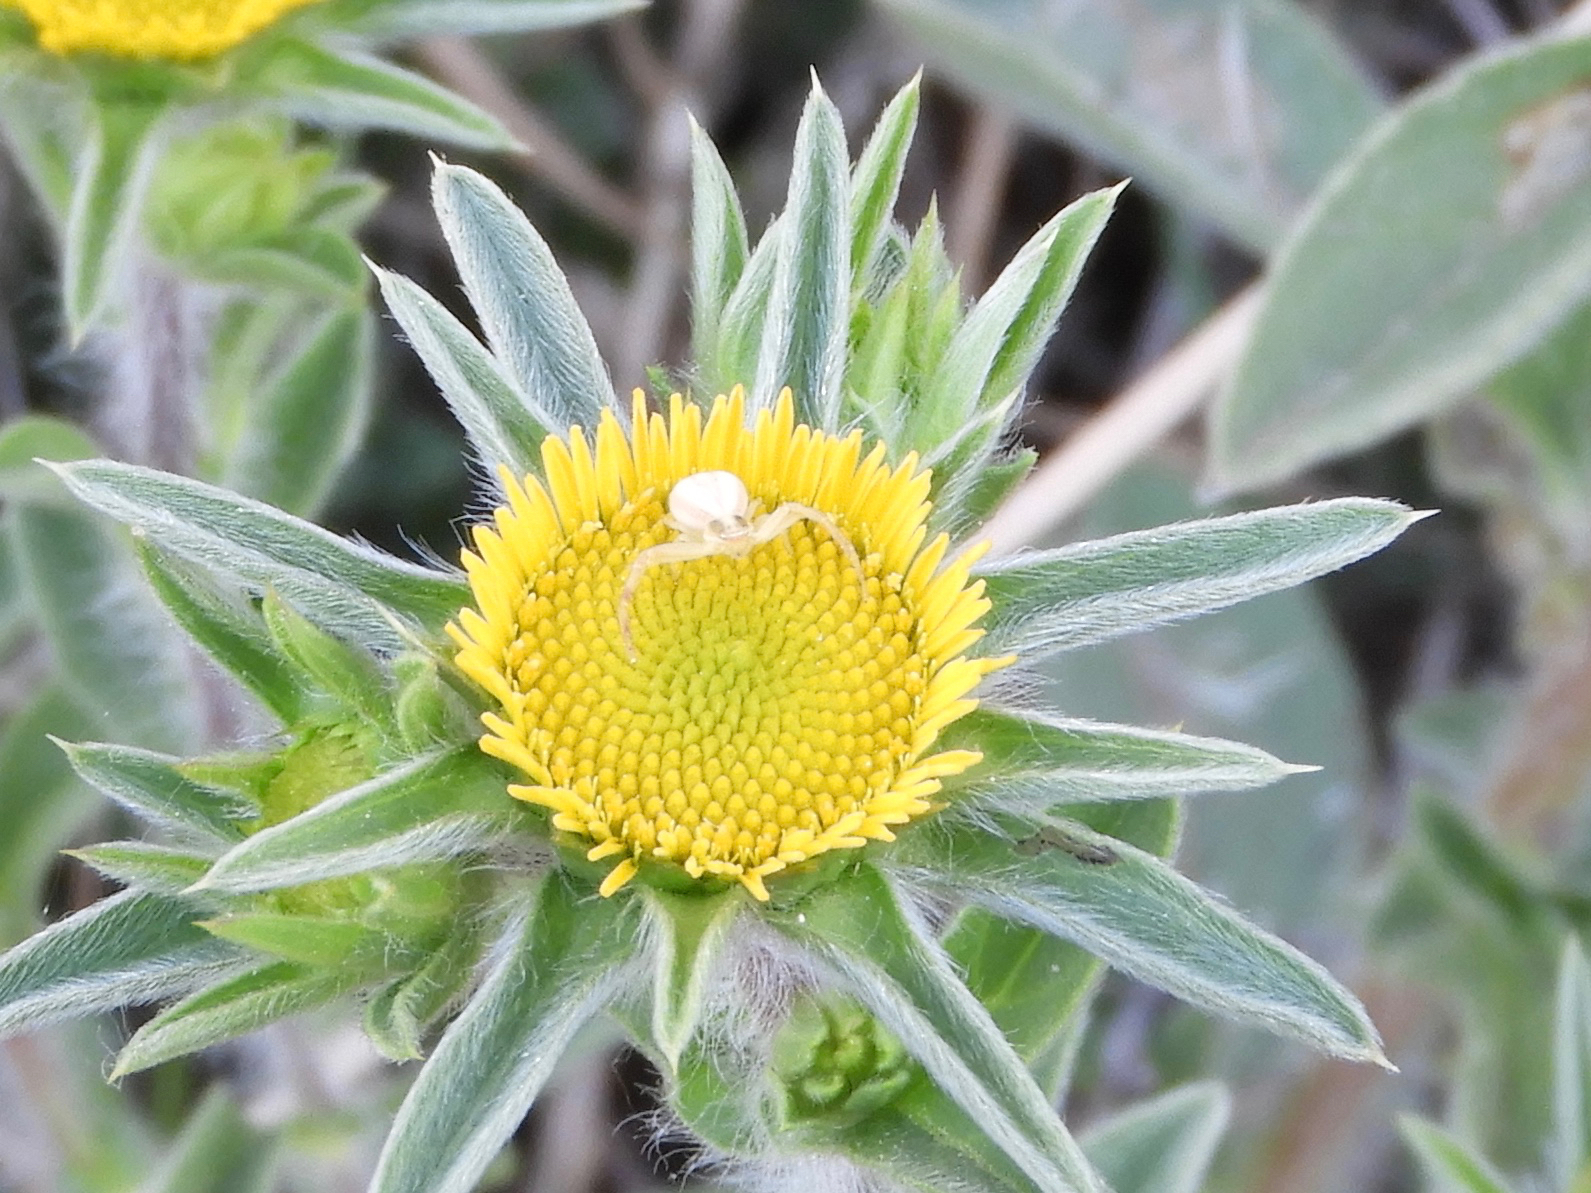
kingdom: Animalia
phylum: Arthropoda
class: Arachnida
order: Araneae
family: Thomisidae
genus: Runcinia
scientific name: Runcinia grammica
